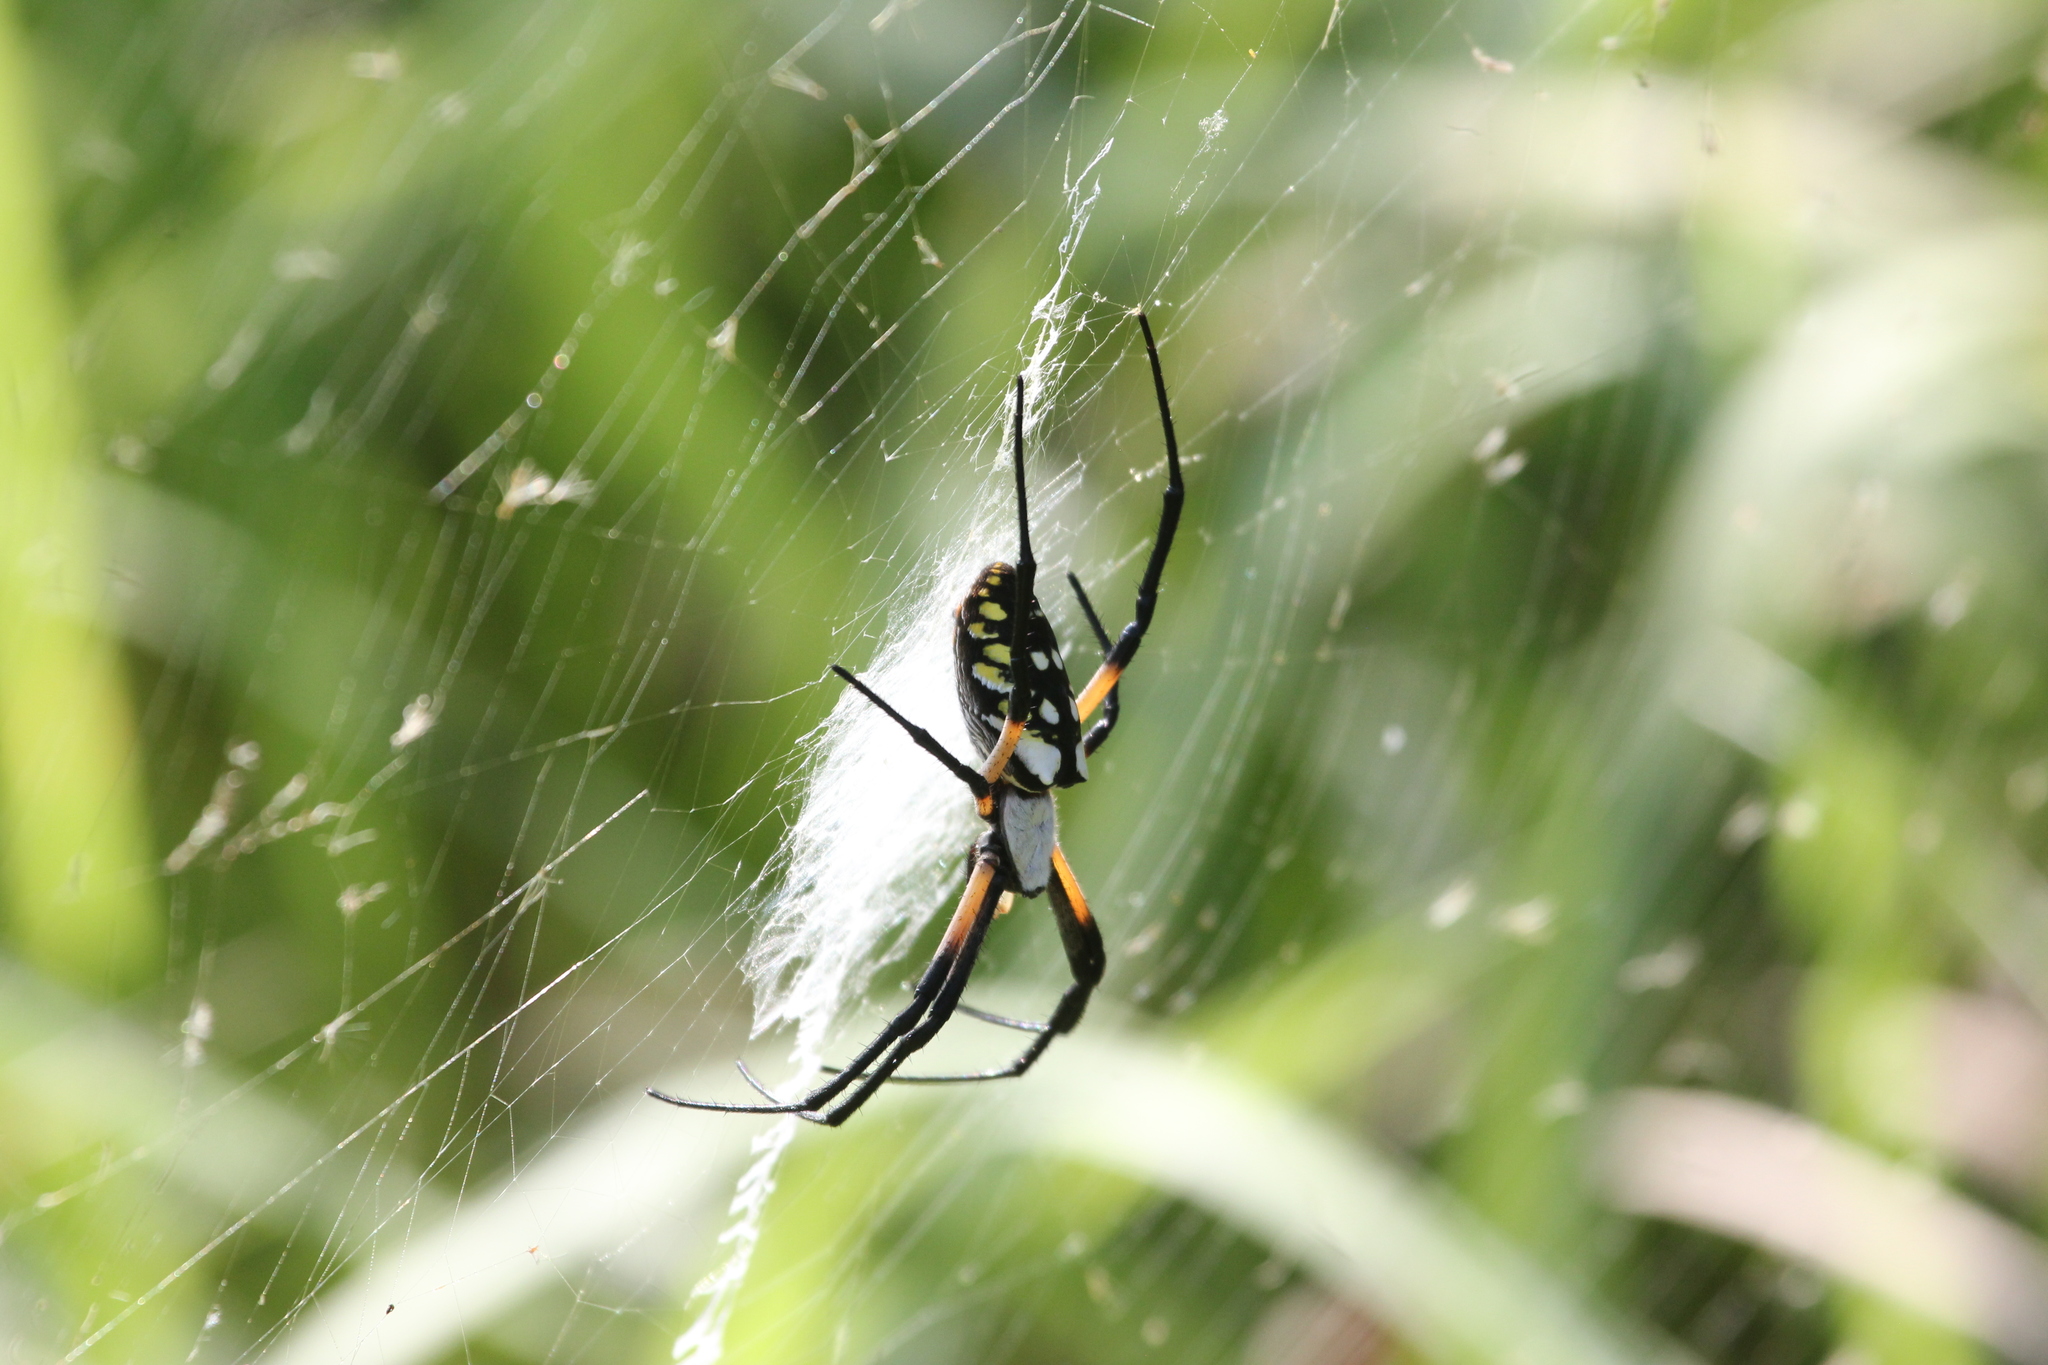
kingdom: Animalia
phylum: Arthropoda
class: Arachnida
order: Araneae
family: Araneidae
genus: Argiope
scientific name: Argiope aurantia
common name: Orb weavers
